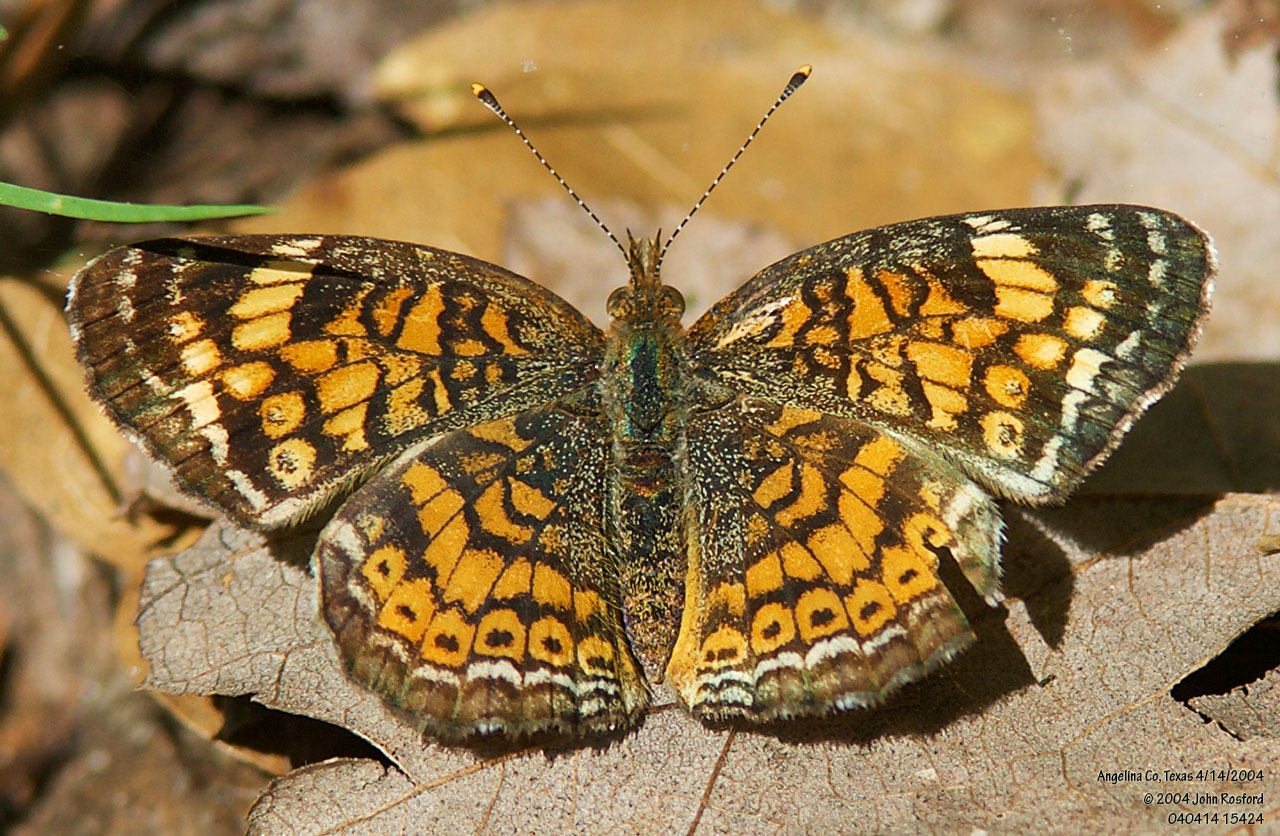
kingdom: Animalia
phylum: Arthropoda
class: Insecta
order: Lepidoptera
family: Nymphalidae
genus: Phyciodes
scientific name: Phyciodes tharos
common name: Pearl crescent
